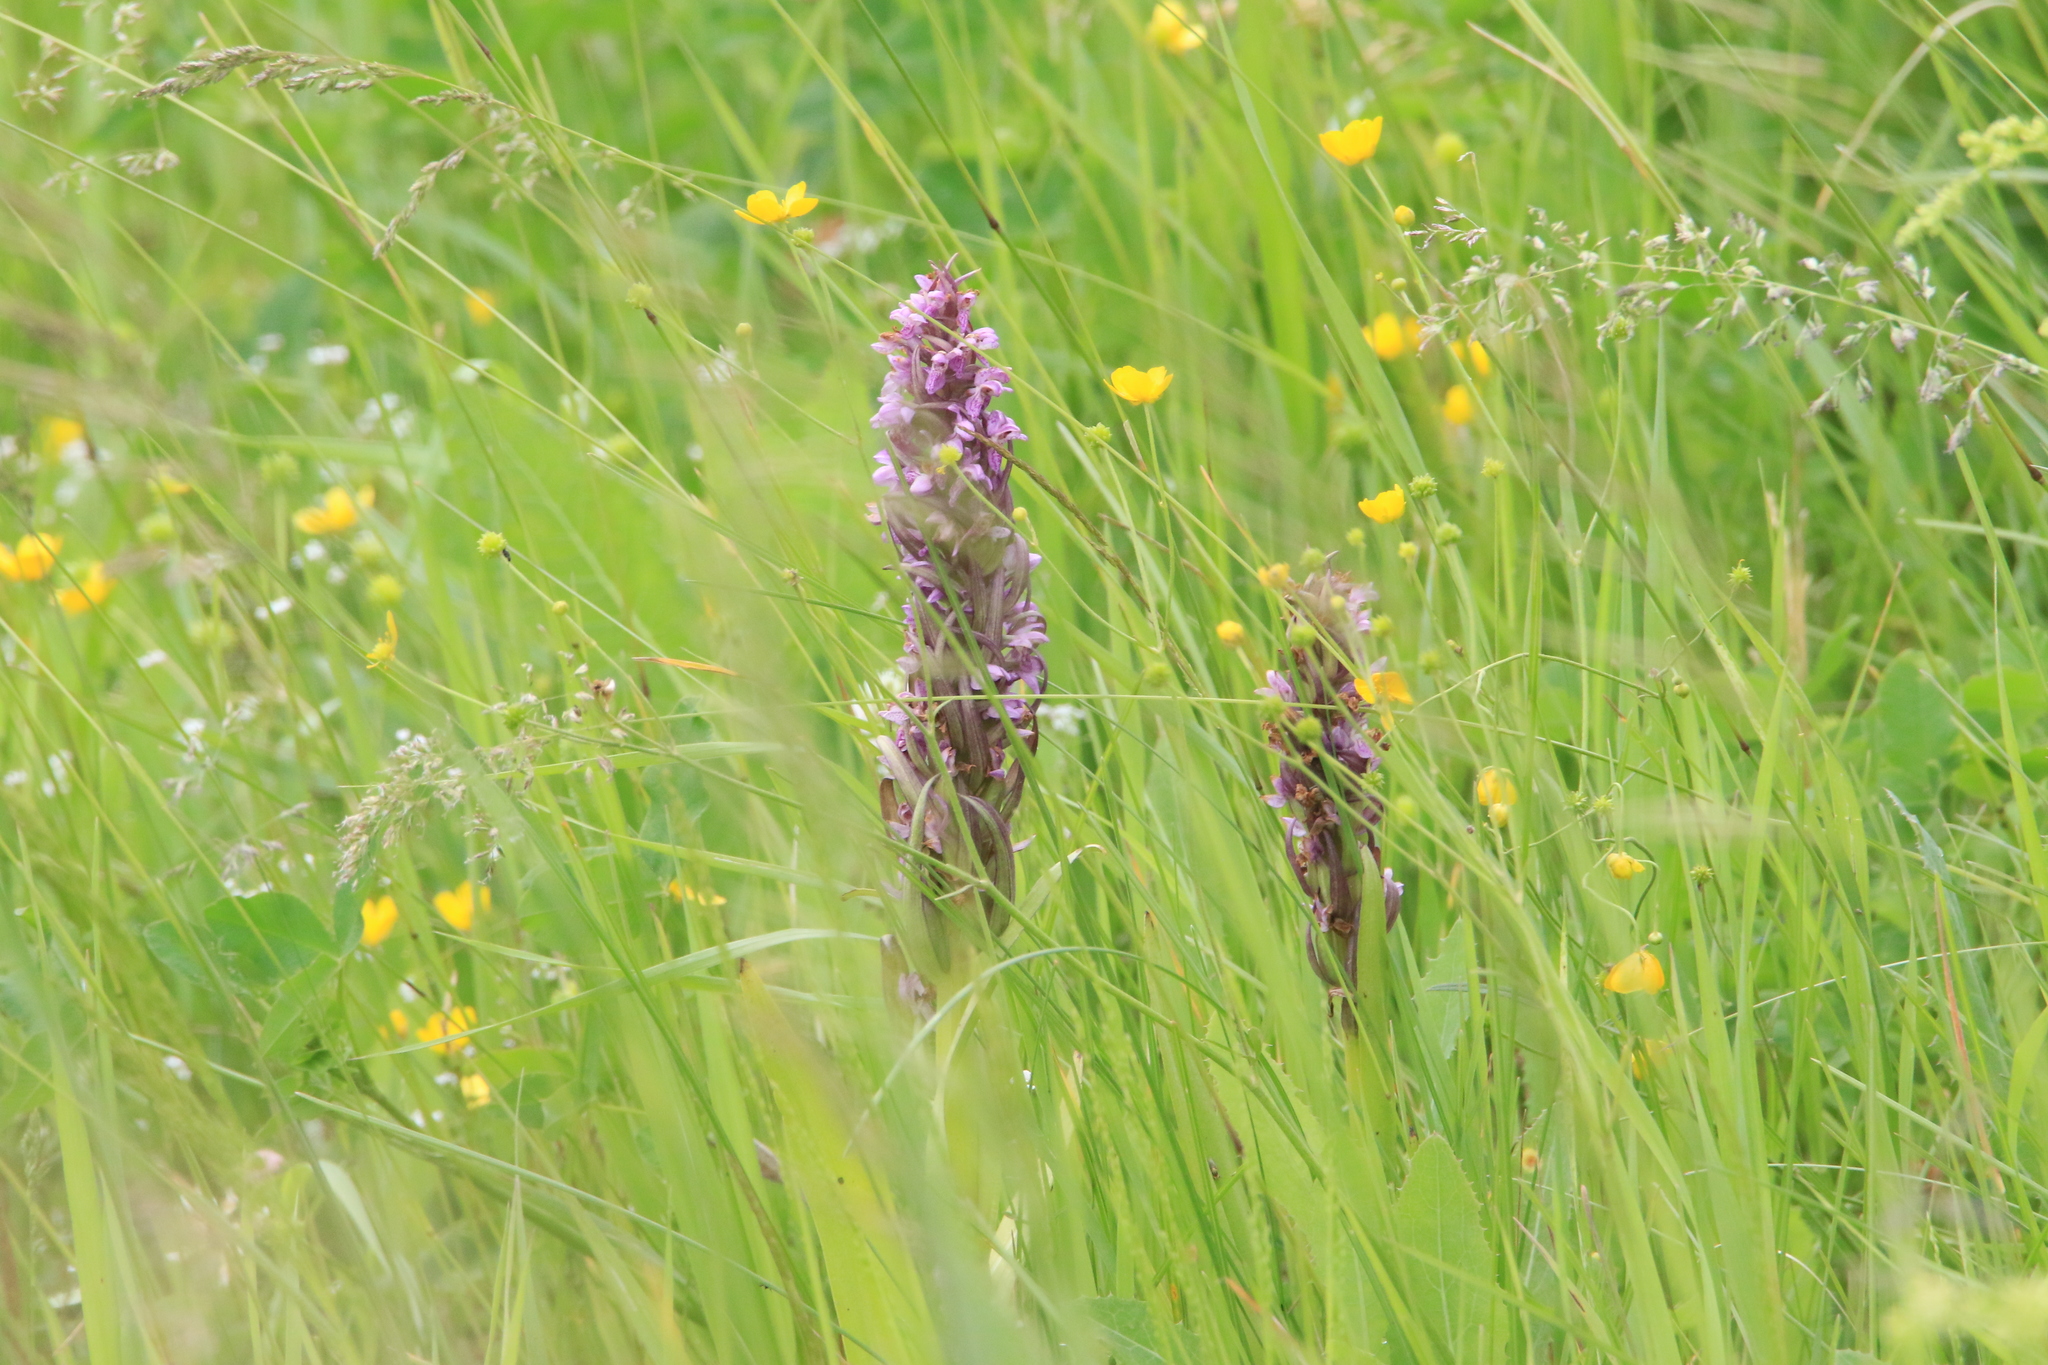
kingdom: Plantae
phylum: Tracheophyta
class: Liliopsida
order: Asparagales
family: Orchidaceae
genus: Dactylorhiza
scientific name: Dactylorhiza incarnata
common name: Early marsh-orchid
